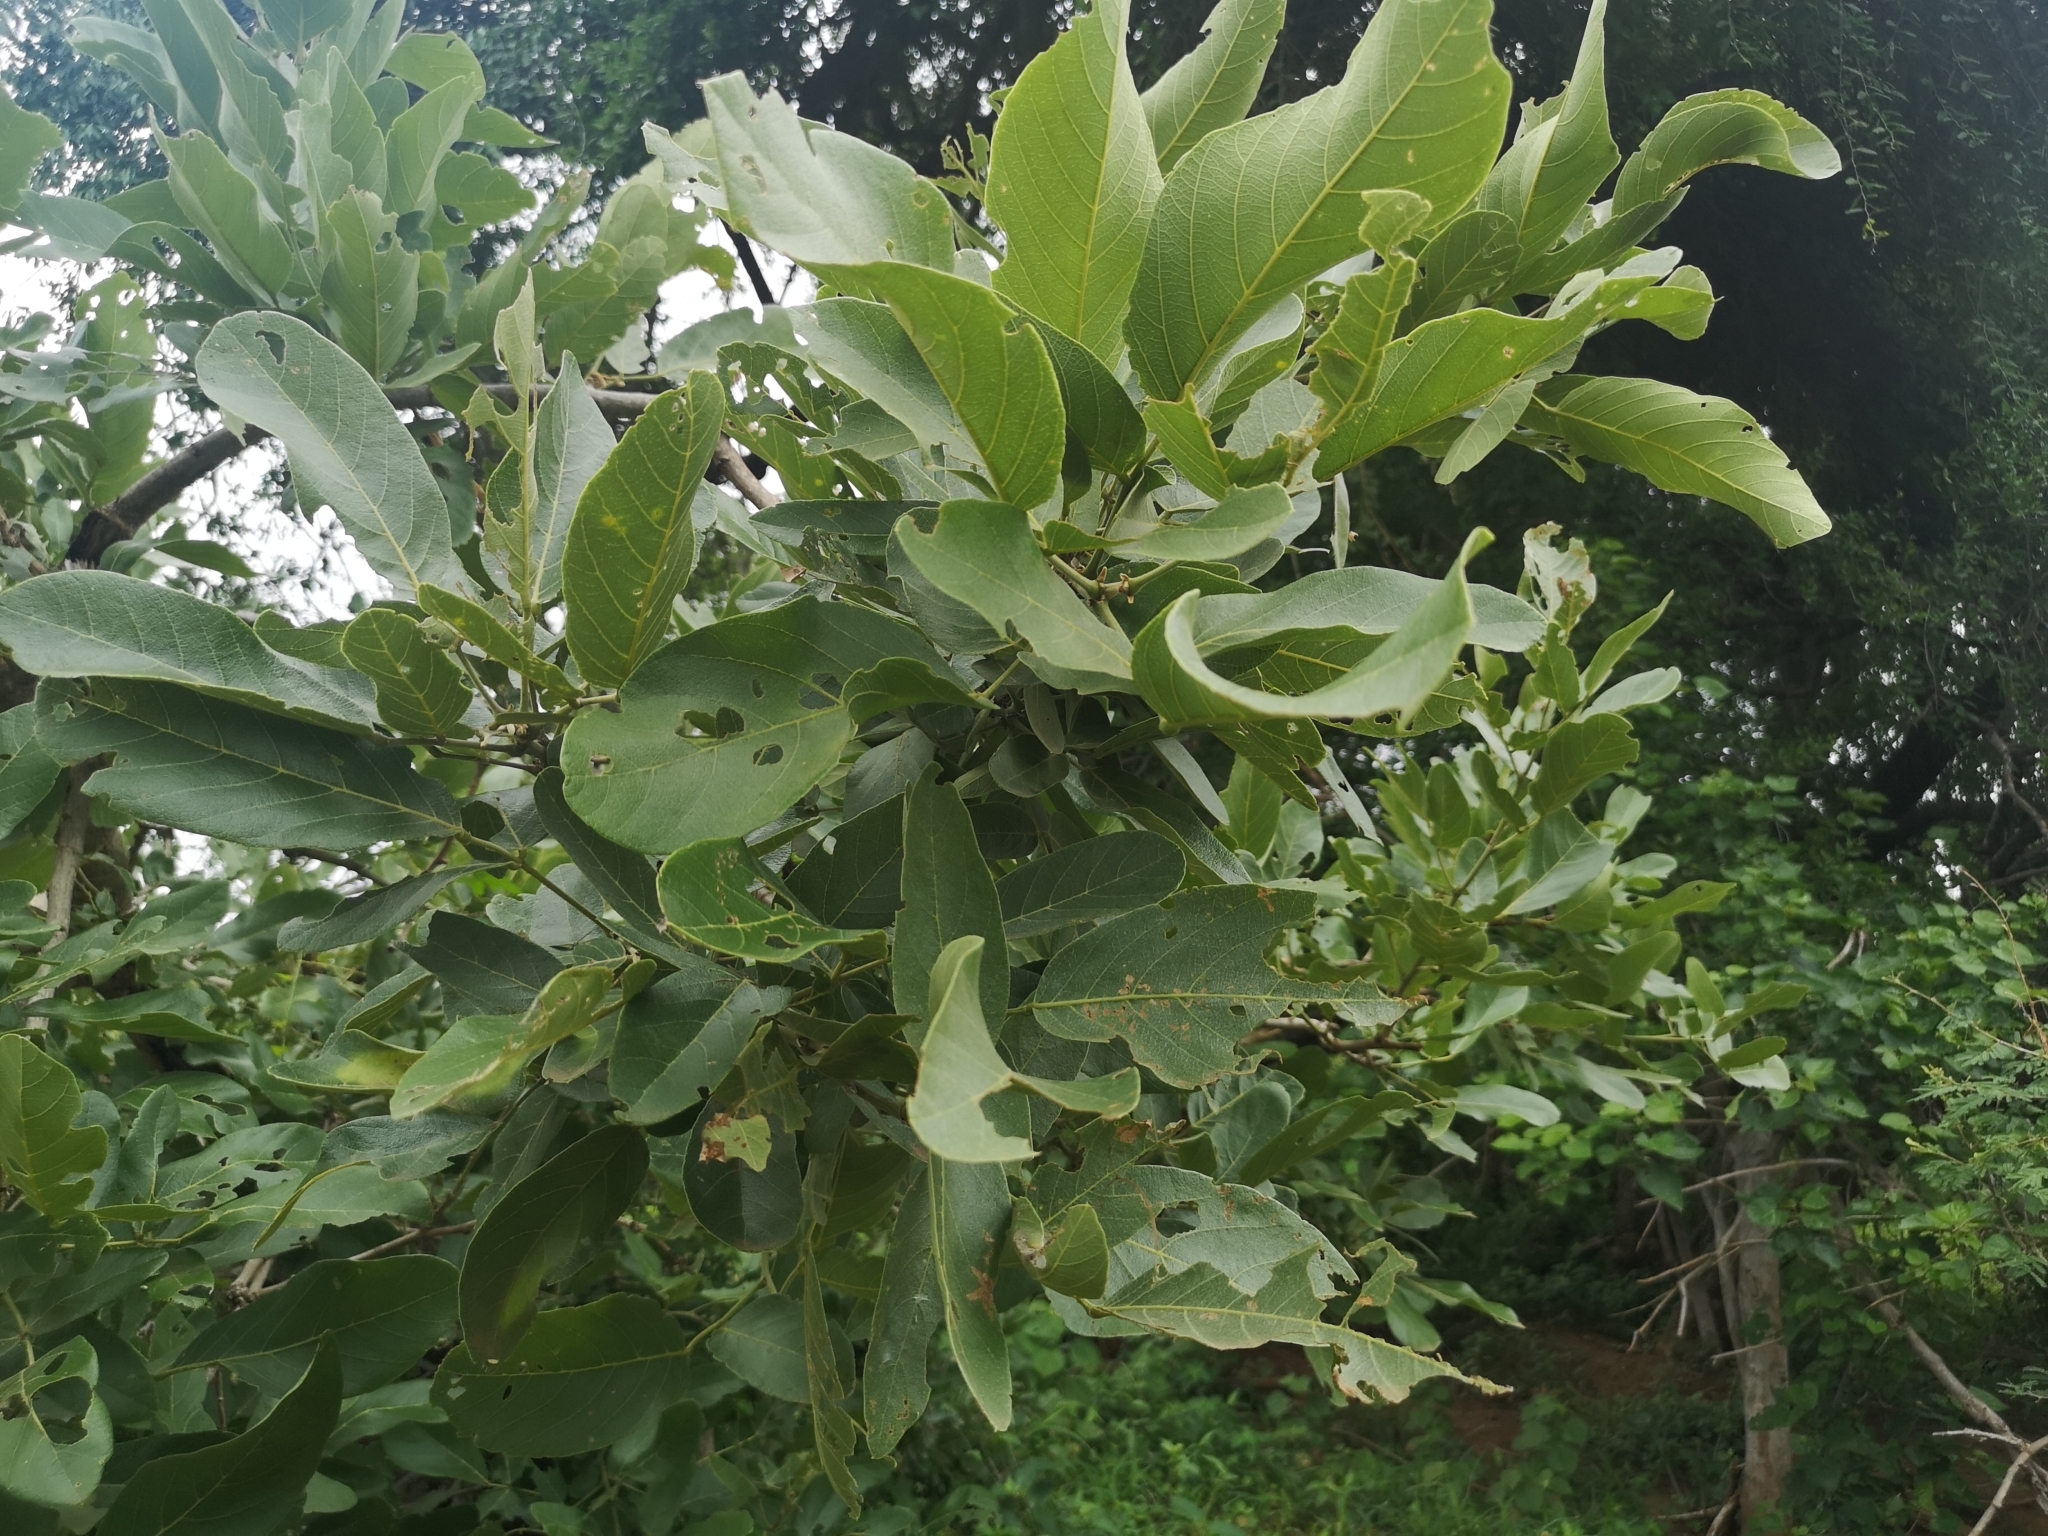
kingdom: Plantae
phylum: Tracheophyta
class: Magnoliopsida
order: Fabales
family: Fabaceae
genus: Philenoptera
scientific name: Philenoptera violacea
